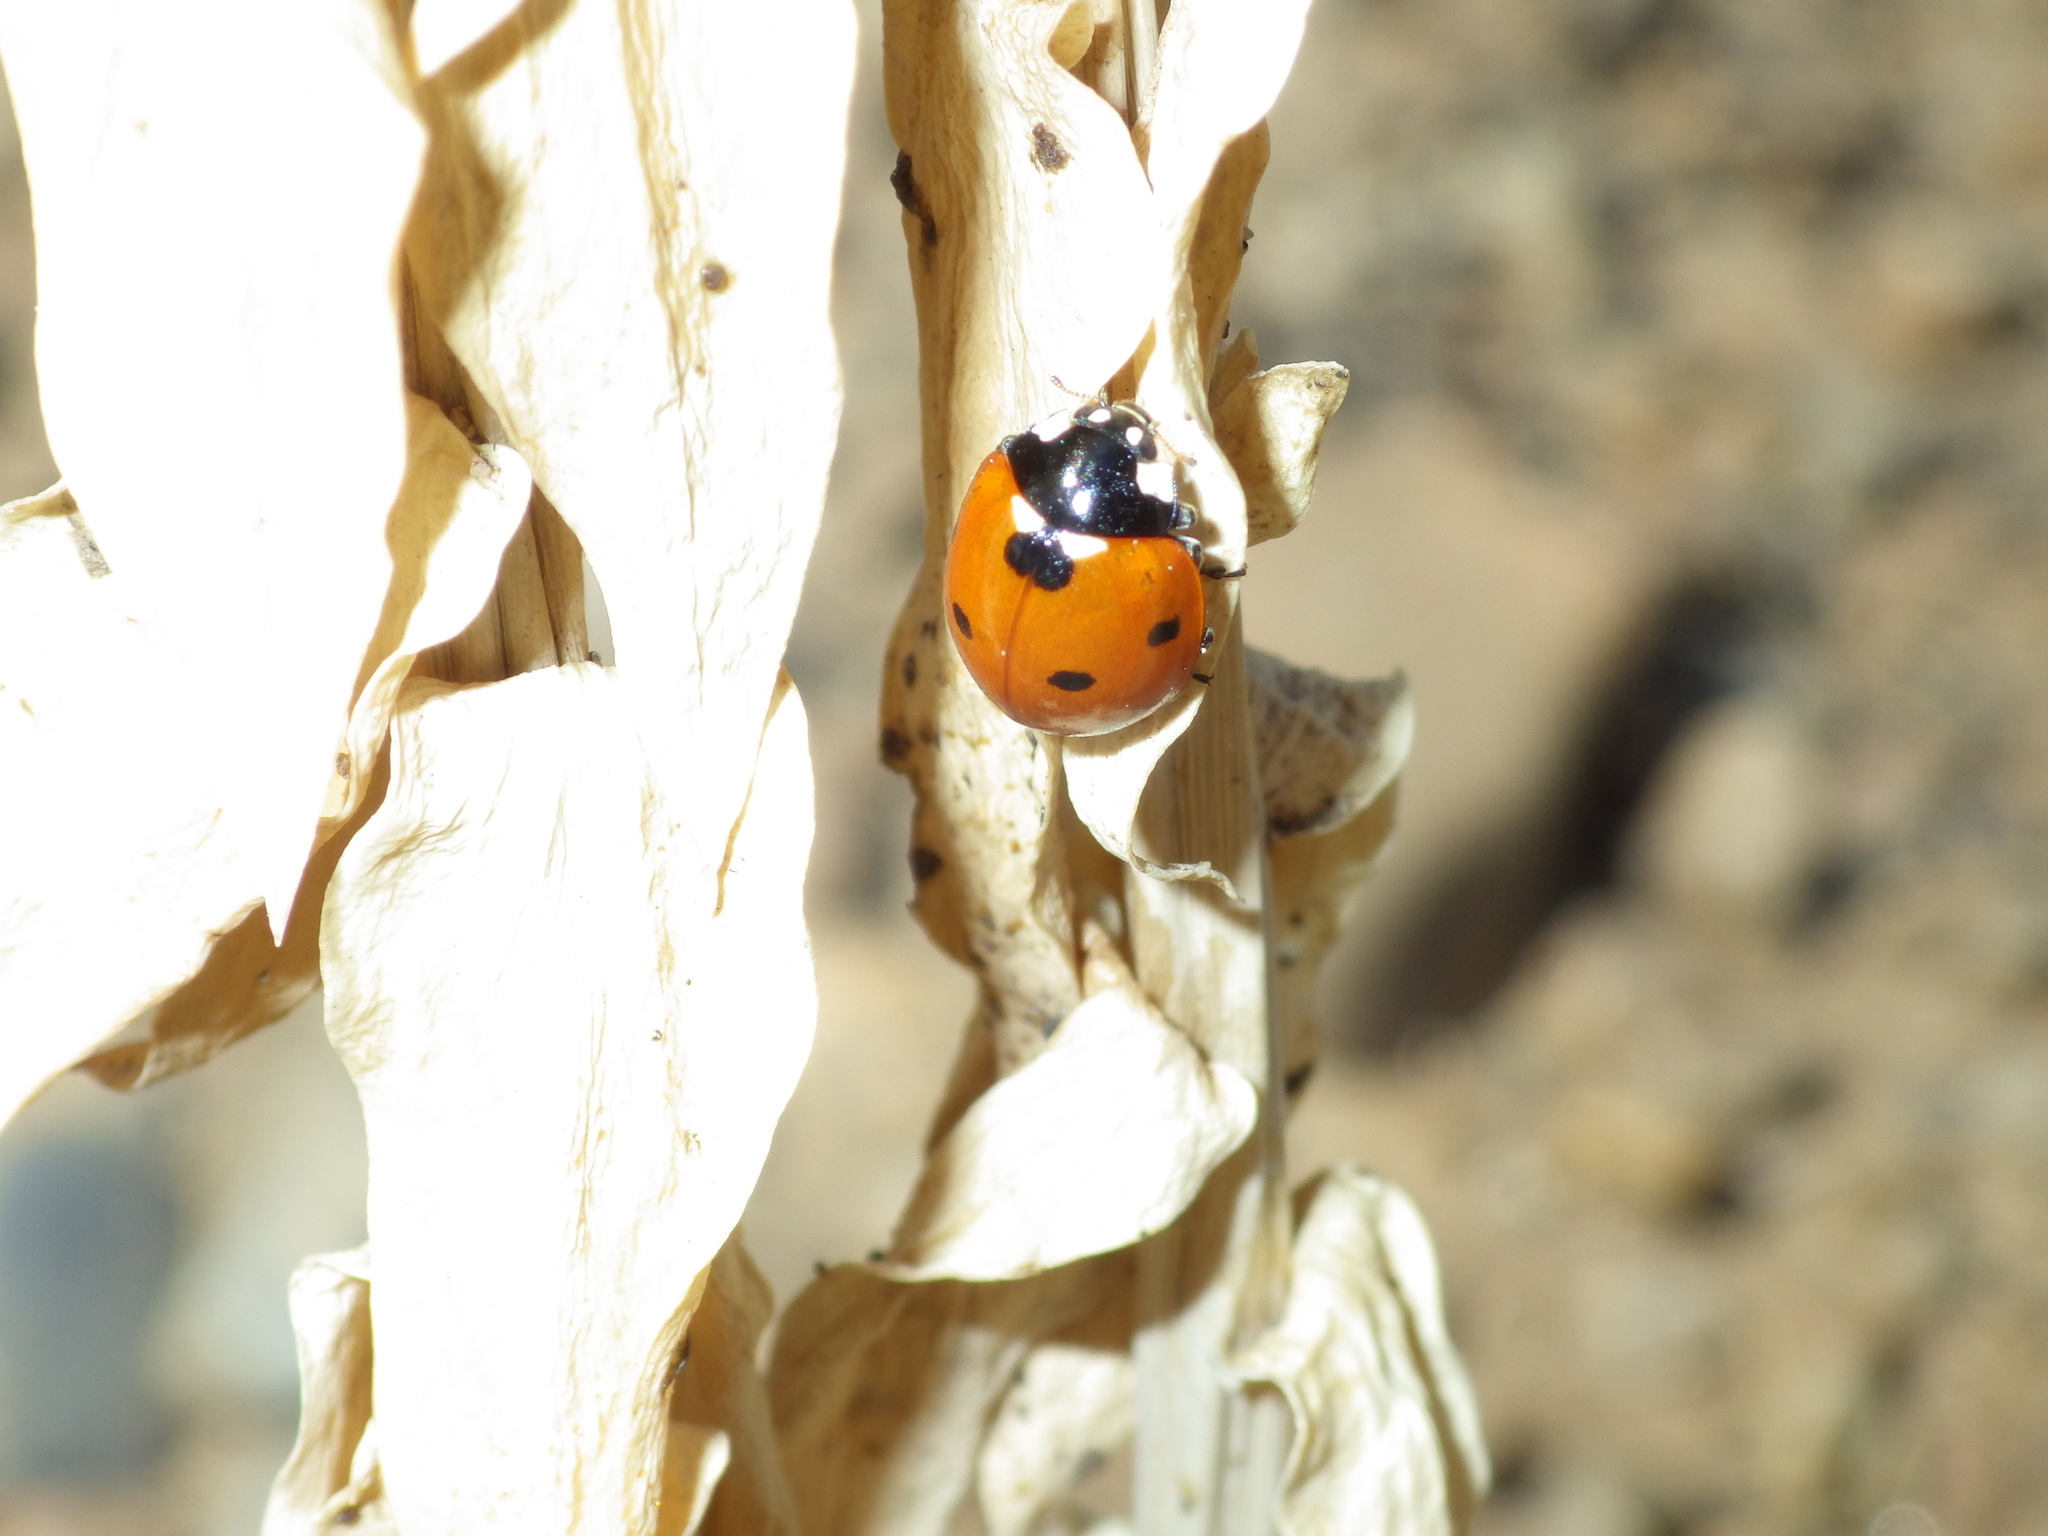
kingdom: Animalia
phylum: Arthropoda
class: Insecta
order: Coleoptera
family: Coccinellidae
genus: Coccinella
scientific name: Coccinella septempunctata
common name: Sevenspotted lady beetle
